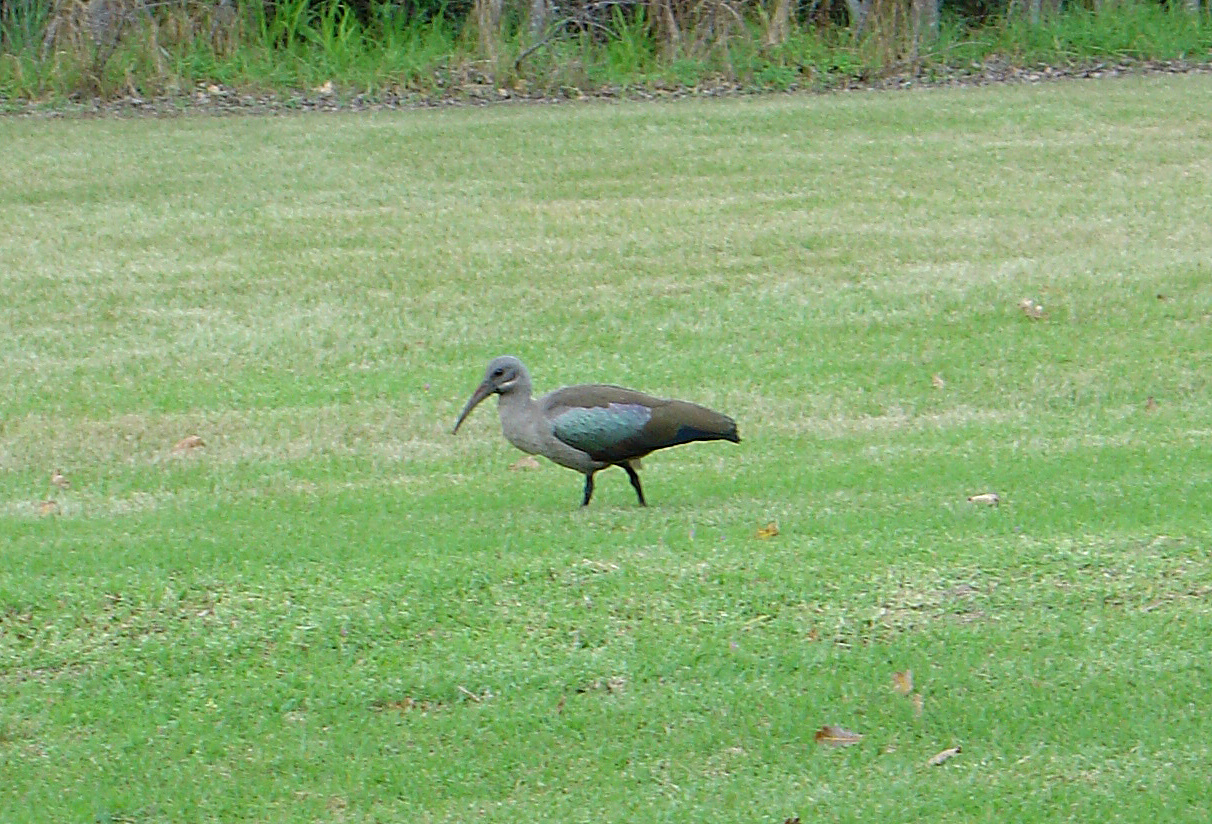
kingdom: Animalia
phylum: Chordata
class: Aves
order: Pelecaniformes
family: Threskiornithidae
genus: Bostrychia
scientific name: Bostrychia hagedash
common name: Hadada ibis
